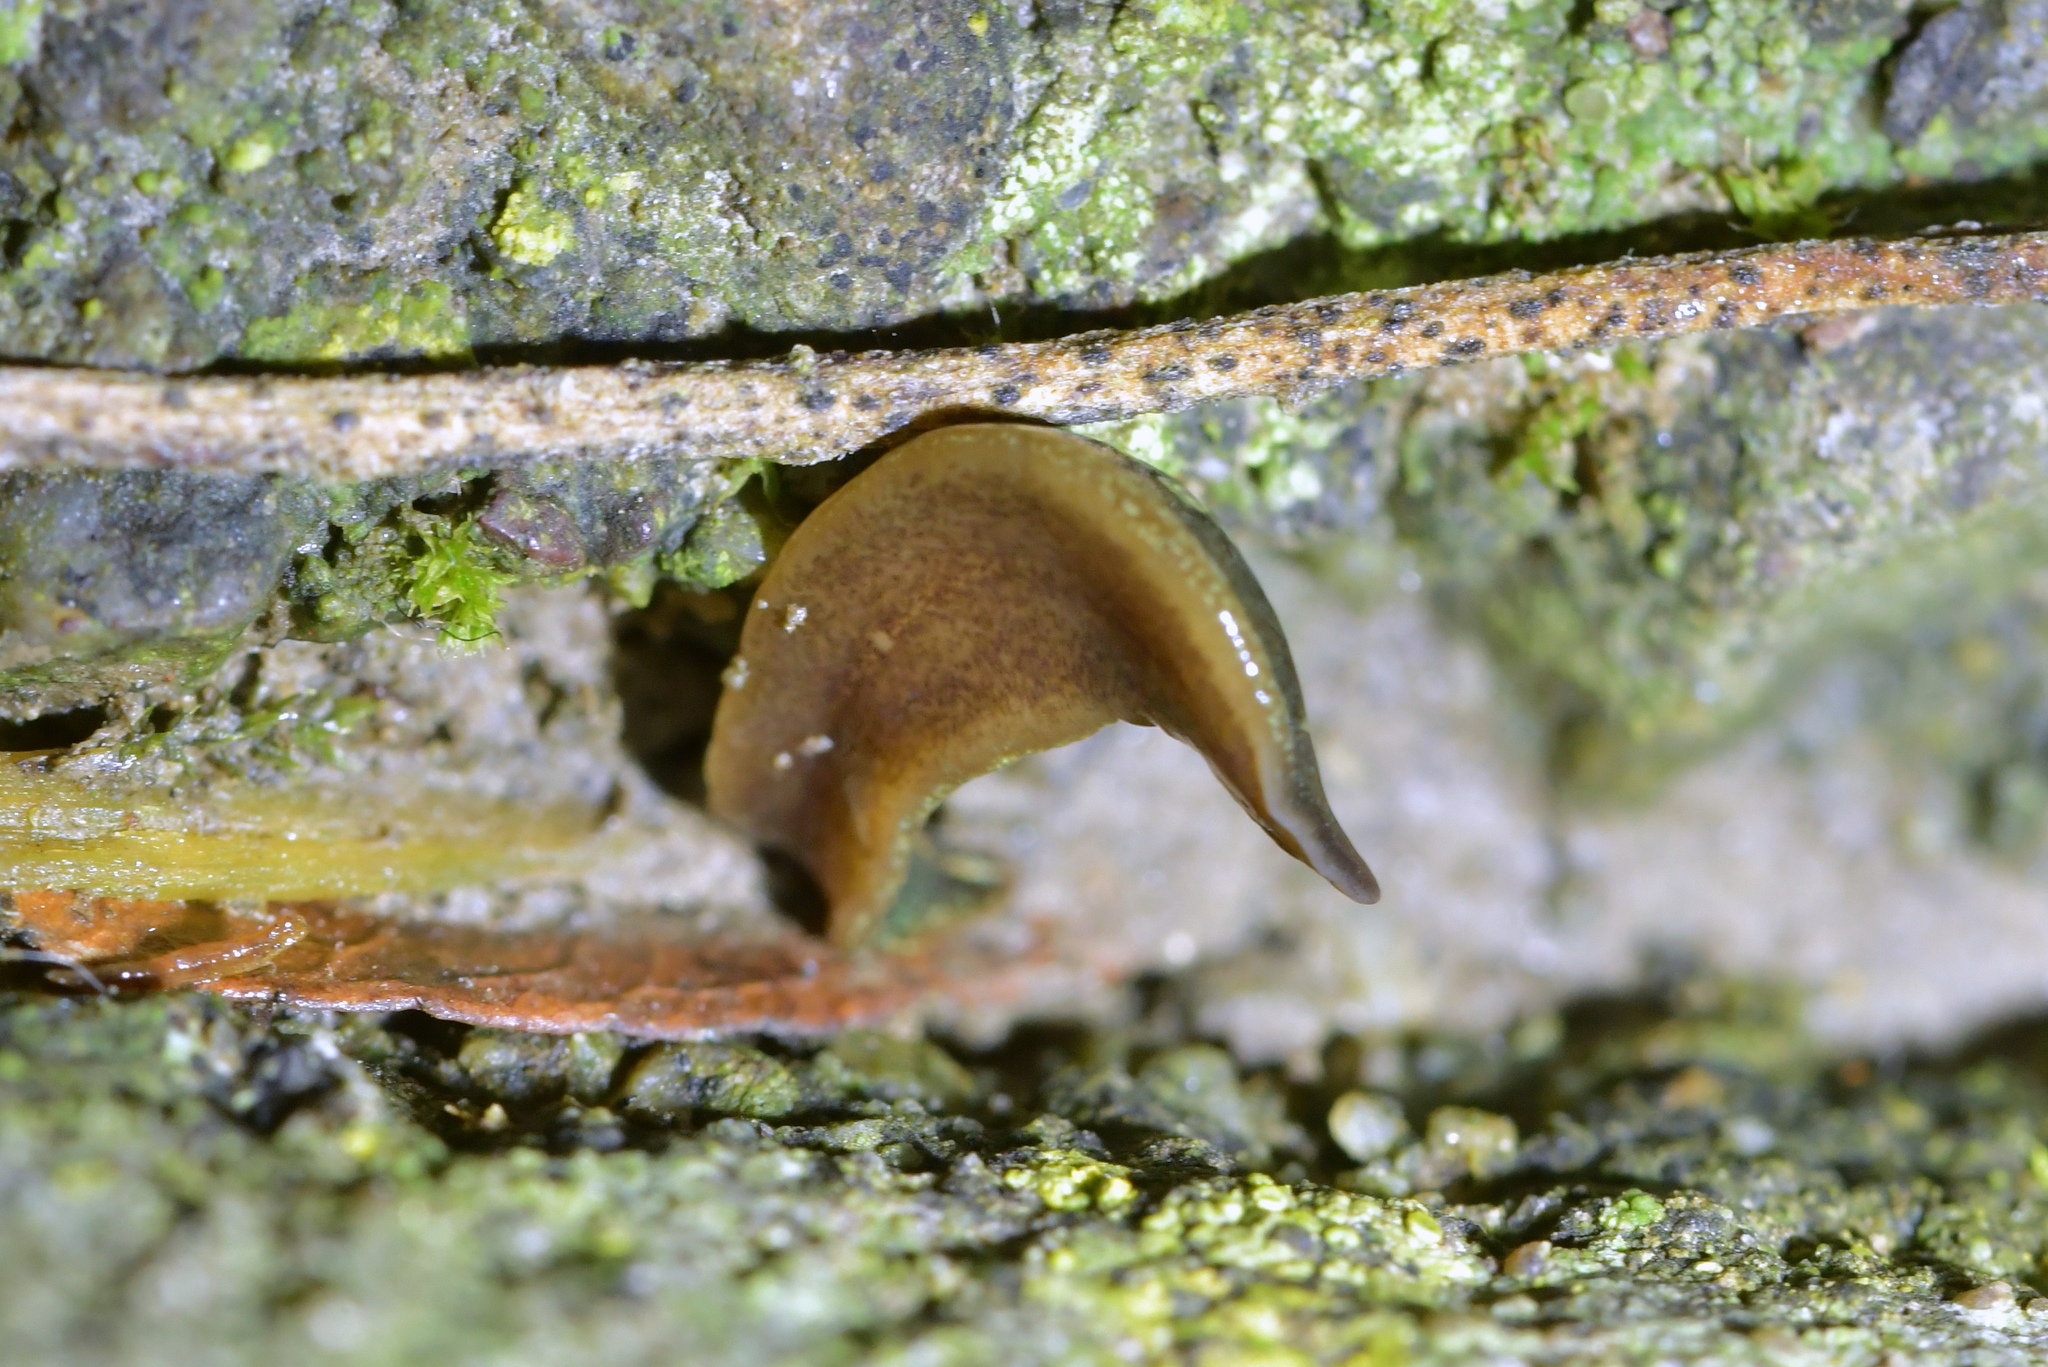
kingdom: Animalia
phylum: Platyhelminthes
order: Tricladida
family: Geoplanidae
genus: Newzealandia
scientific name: Newzealandia graffii
